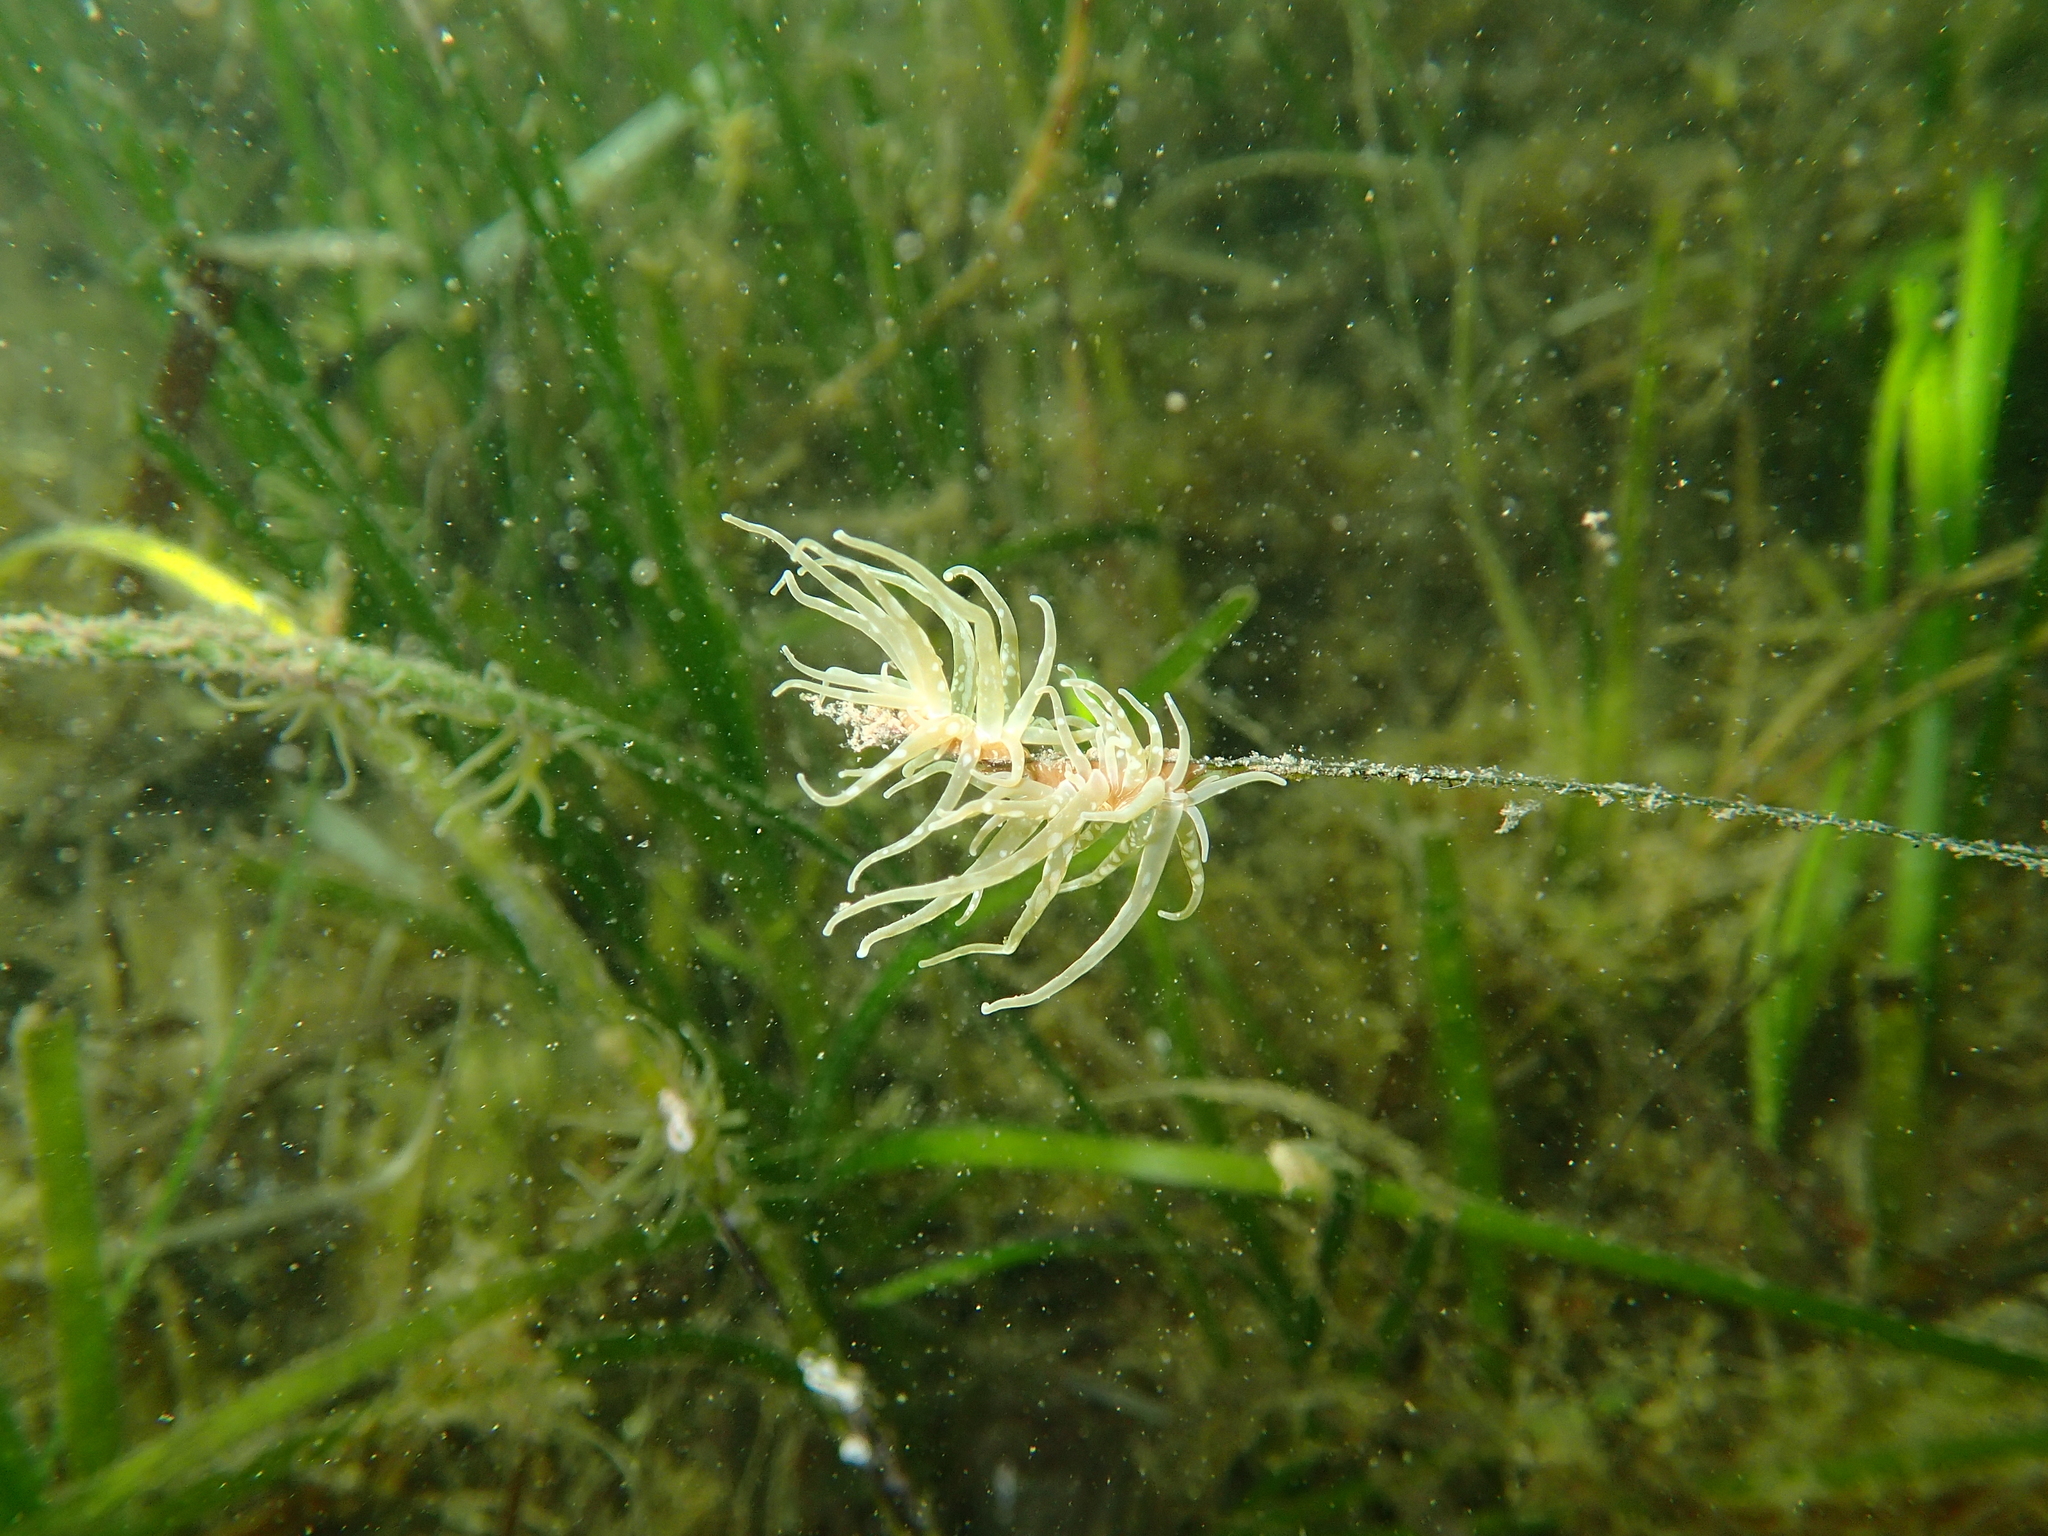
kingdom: Animalia
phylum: Cnidaria
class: Anthozoa
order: Actiniaria
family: Actiniidae
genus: Paranemonia
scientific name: Paranemonia cinerea
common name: Grass crack anemone
